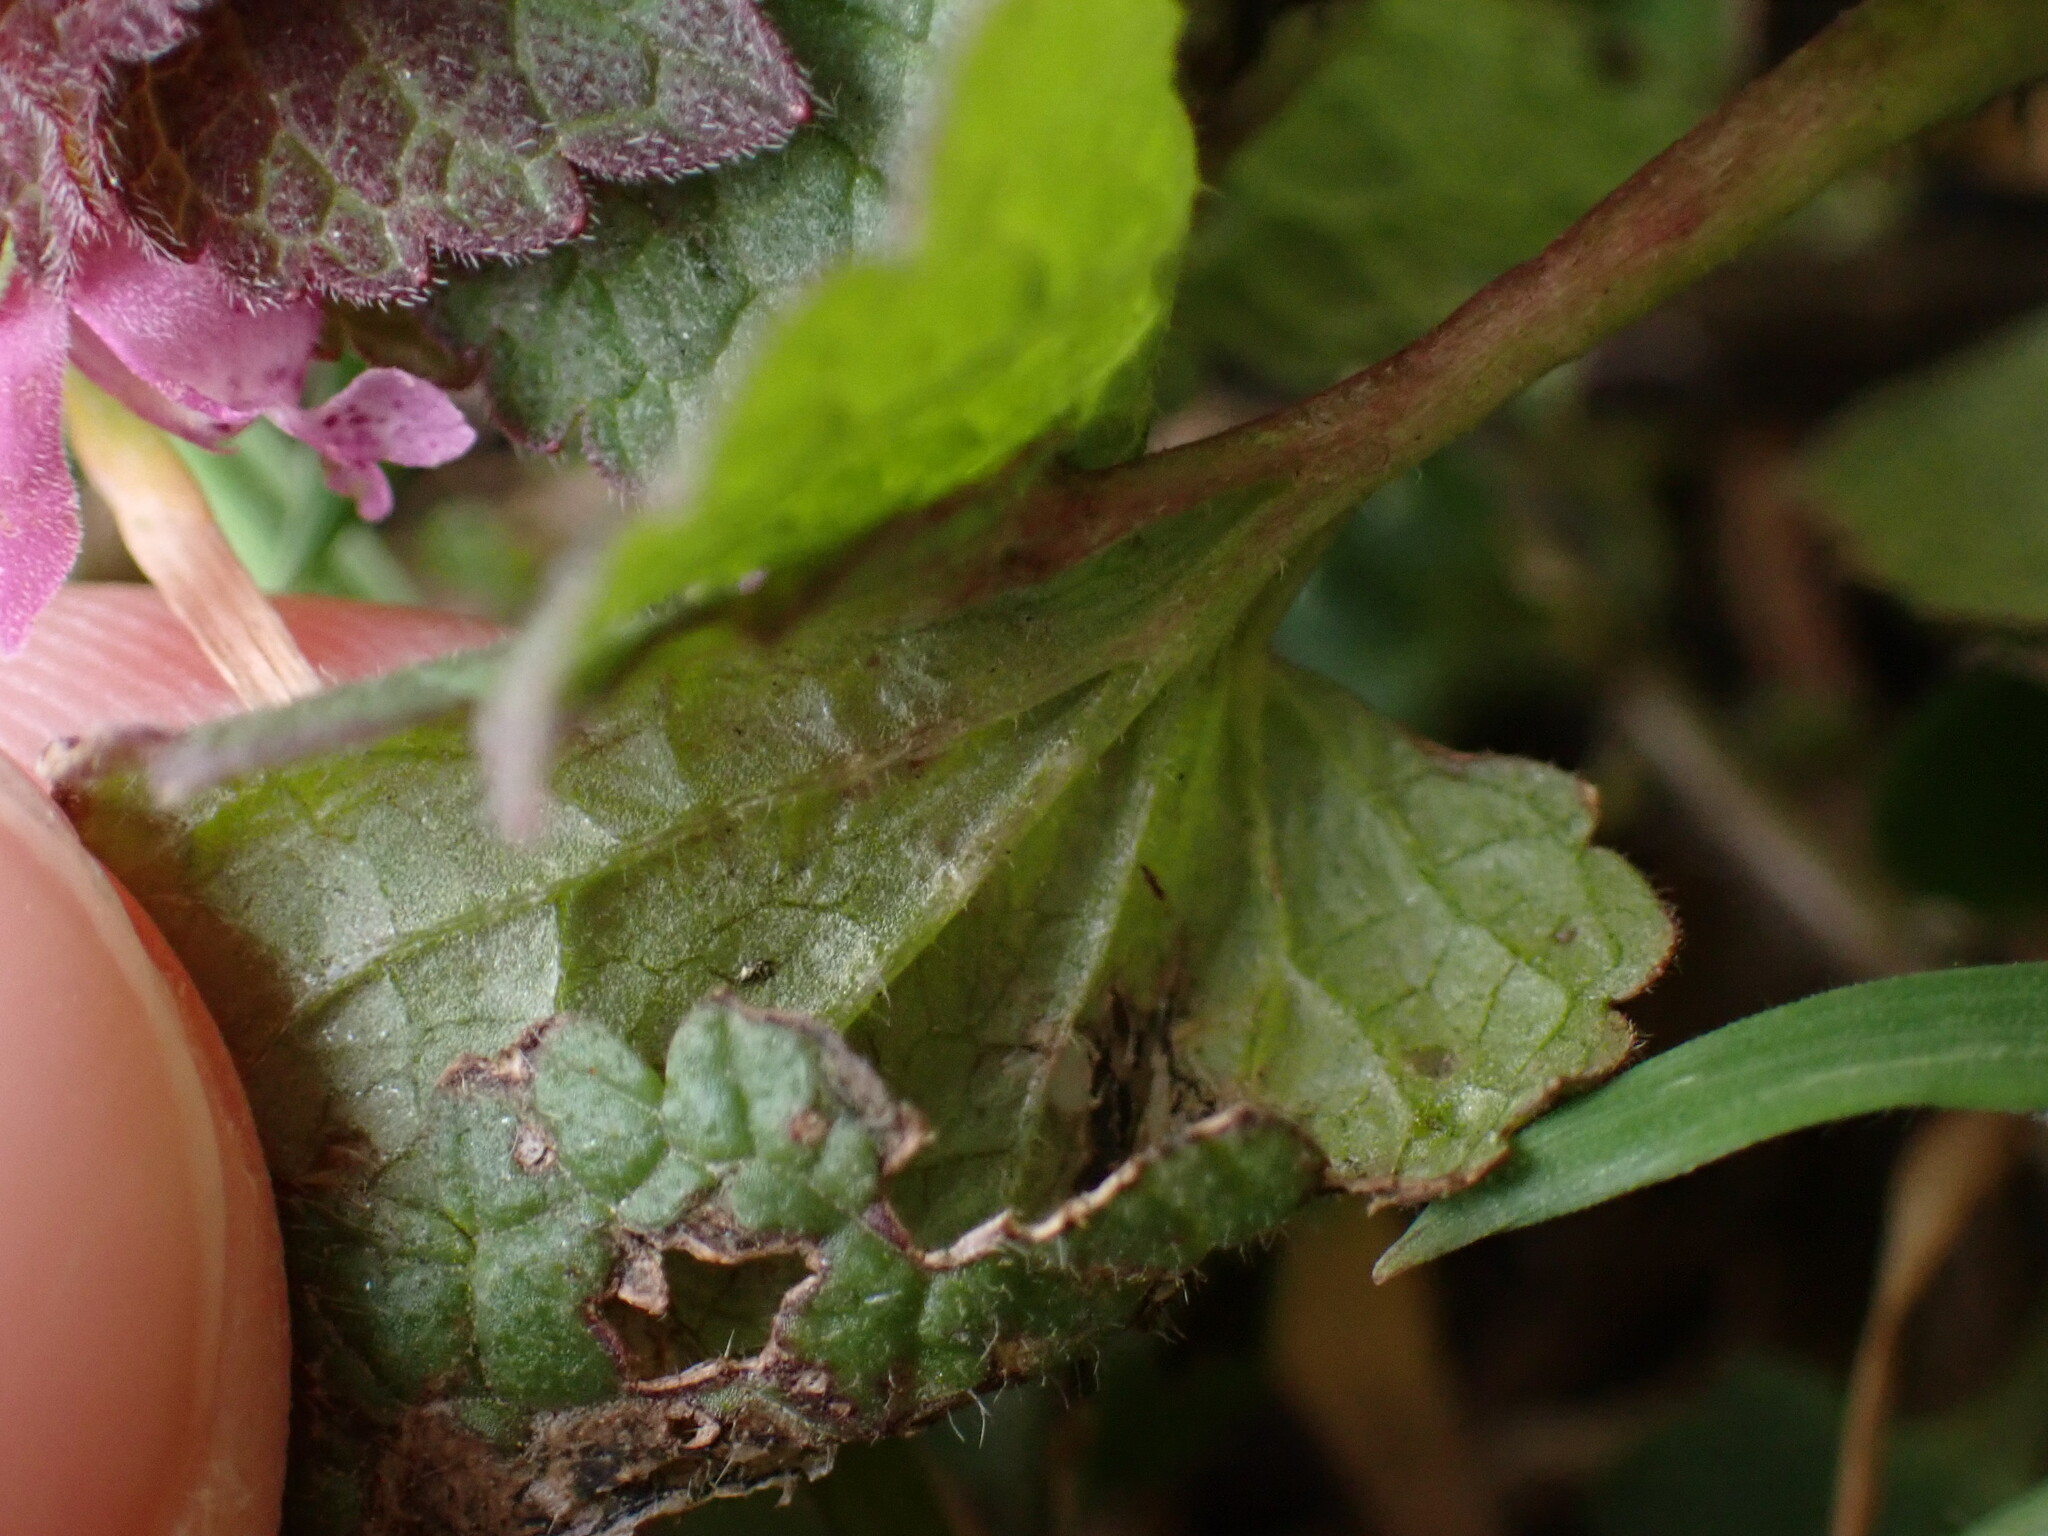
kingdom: Plantae
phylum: Tracheophyta
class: Magnoliopsida
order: Lamiales
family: Lamiaceae
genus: Lamium
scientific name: Lamium purpureum
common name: Red dead-nettle
